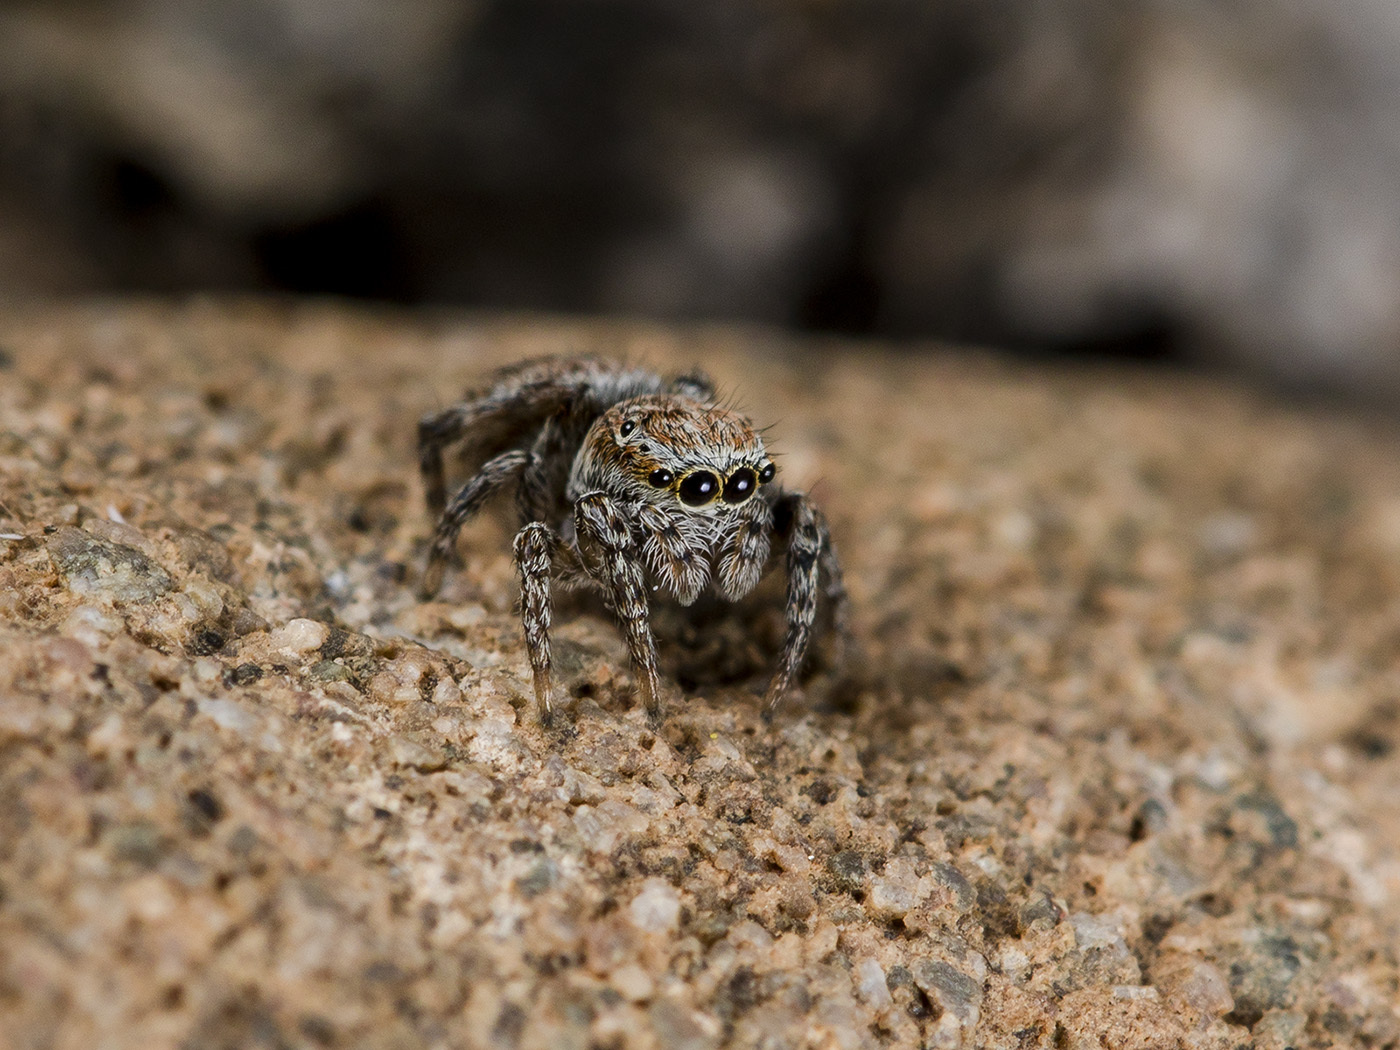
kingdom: Animalia
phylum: Arthropoda
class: Arachnida
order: Araneae
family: Salticidae
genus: Attulus
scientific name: Attulus mirandus
